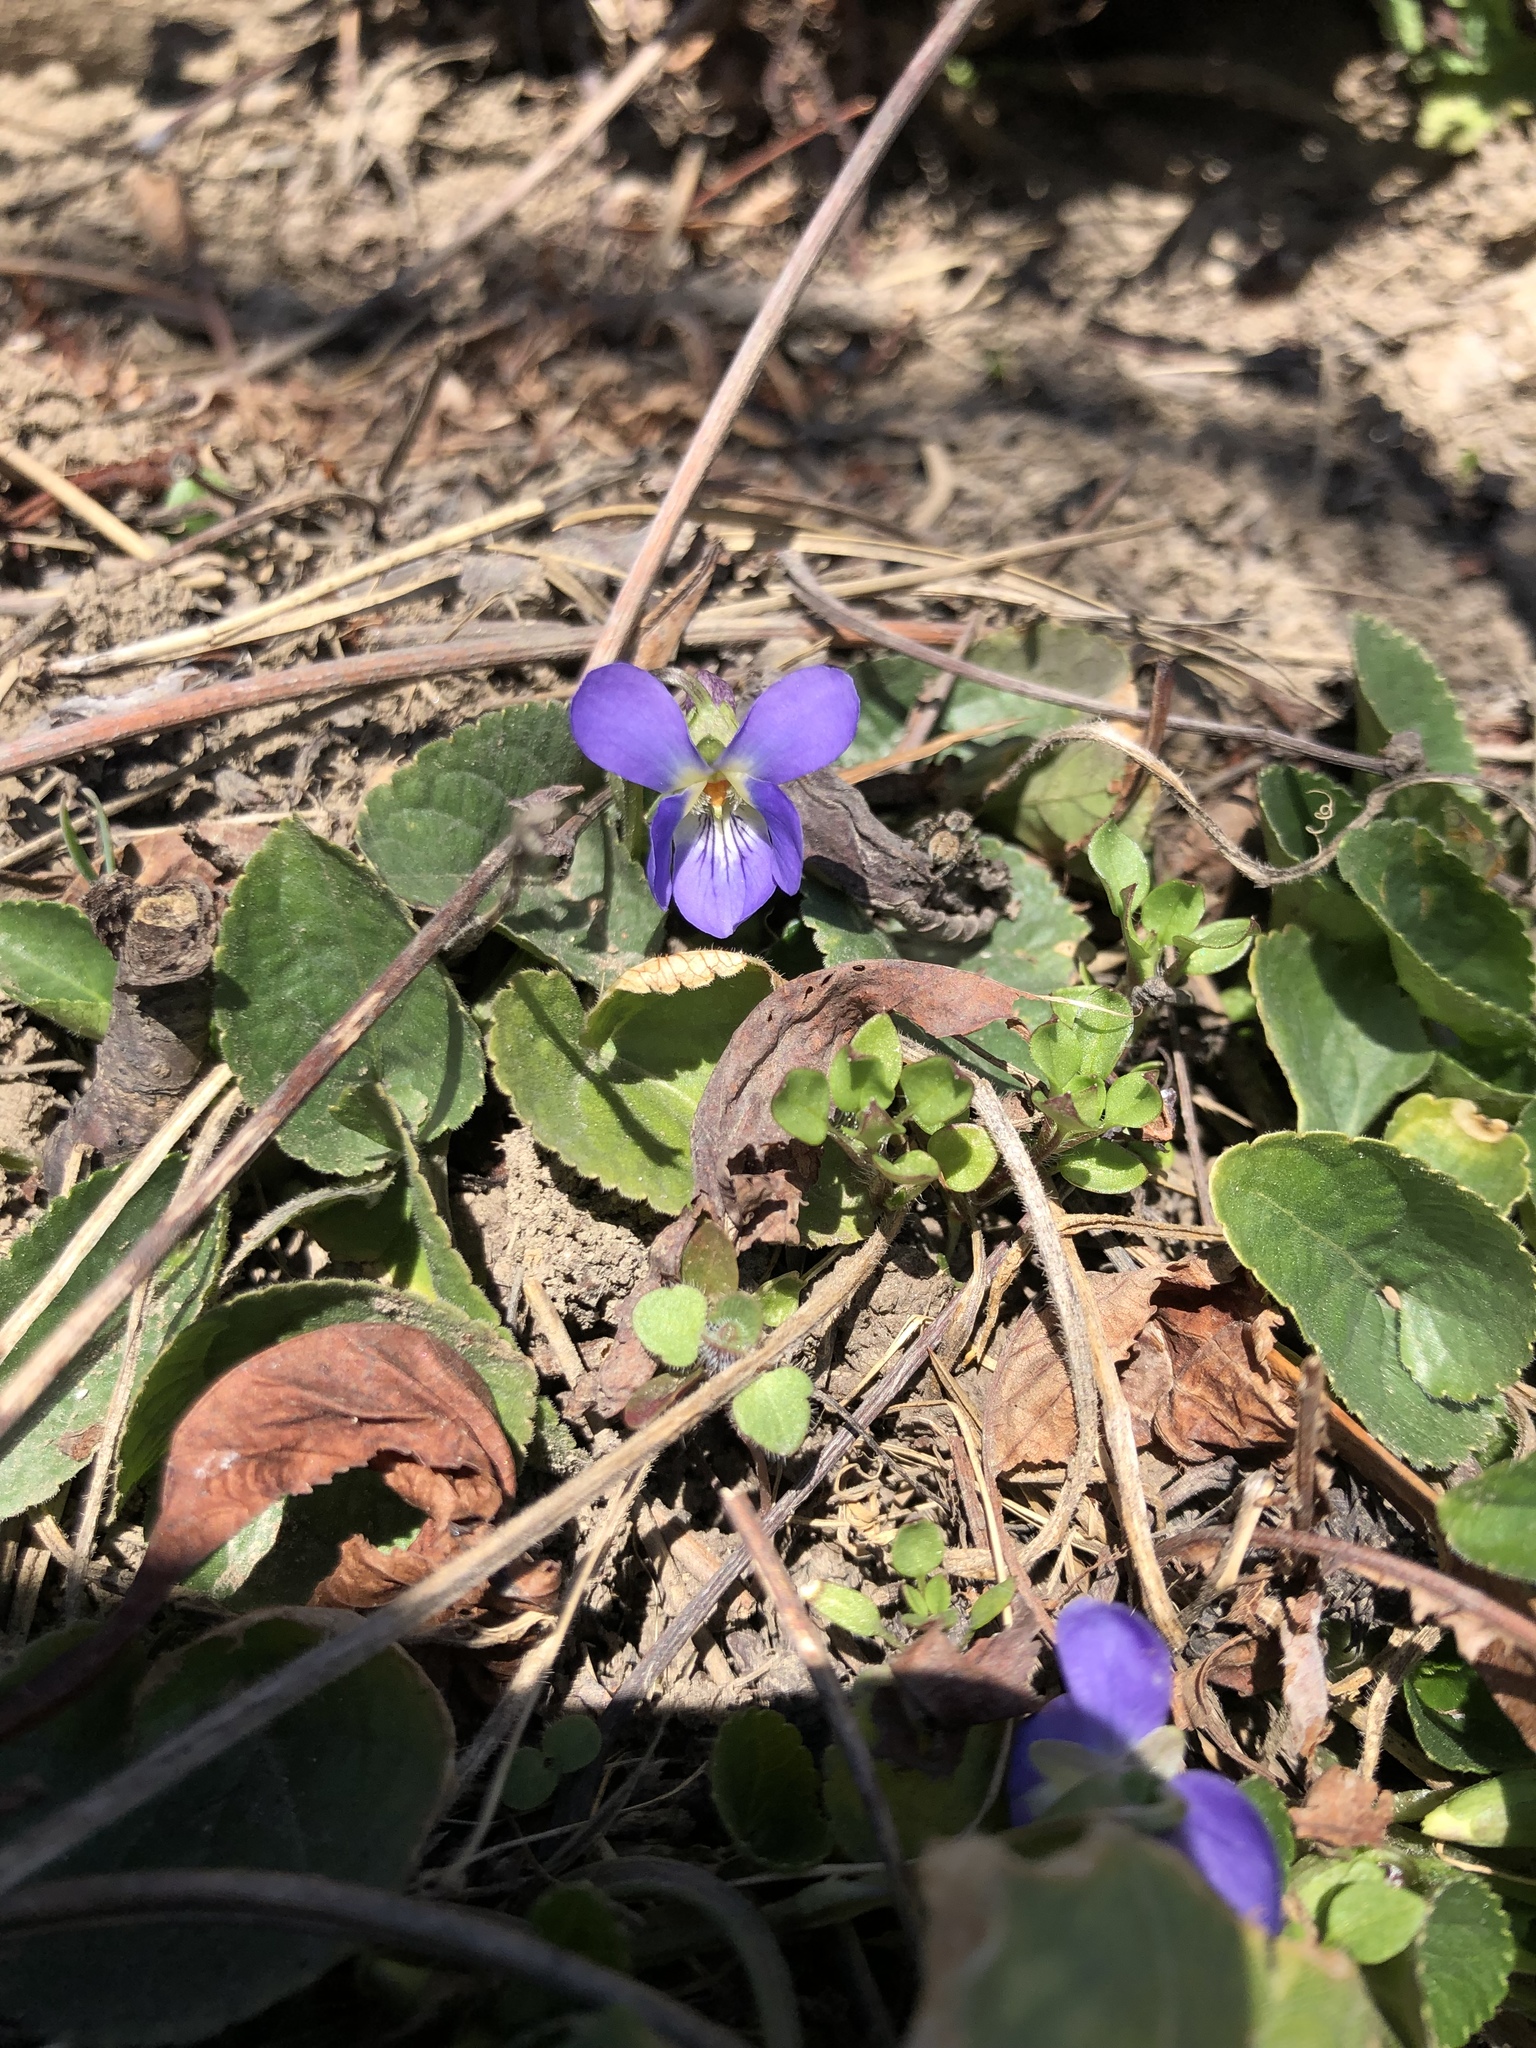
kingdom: Plantae
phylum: Tracheophyta
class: Magnoliopsida
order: Malpighiales
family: Violaceae
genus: Viola
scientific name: Viola suavis
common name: Russian violet
